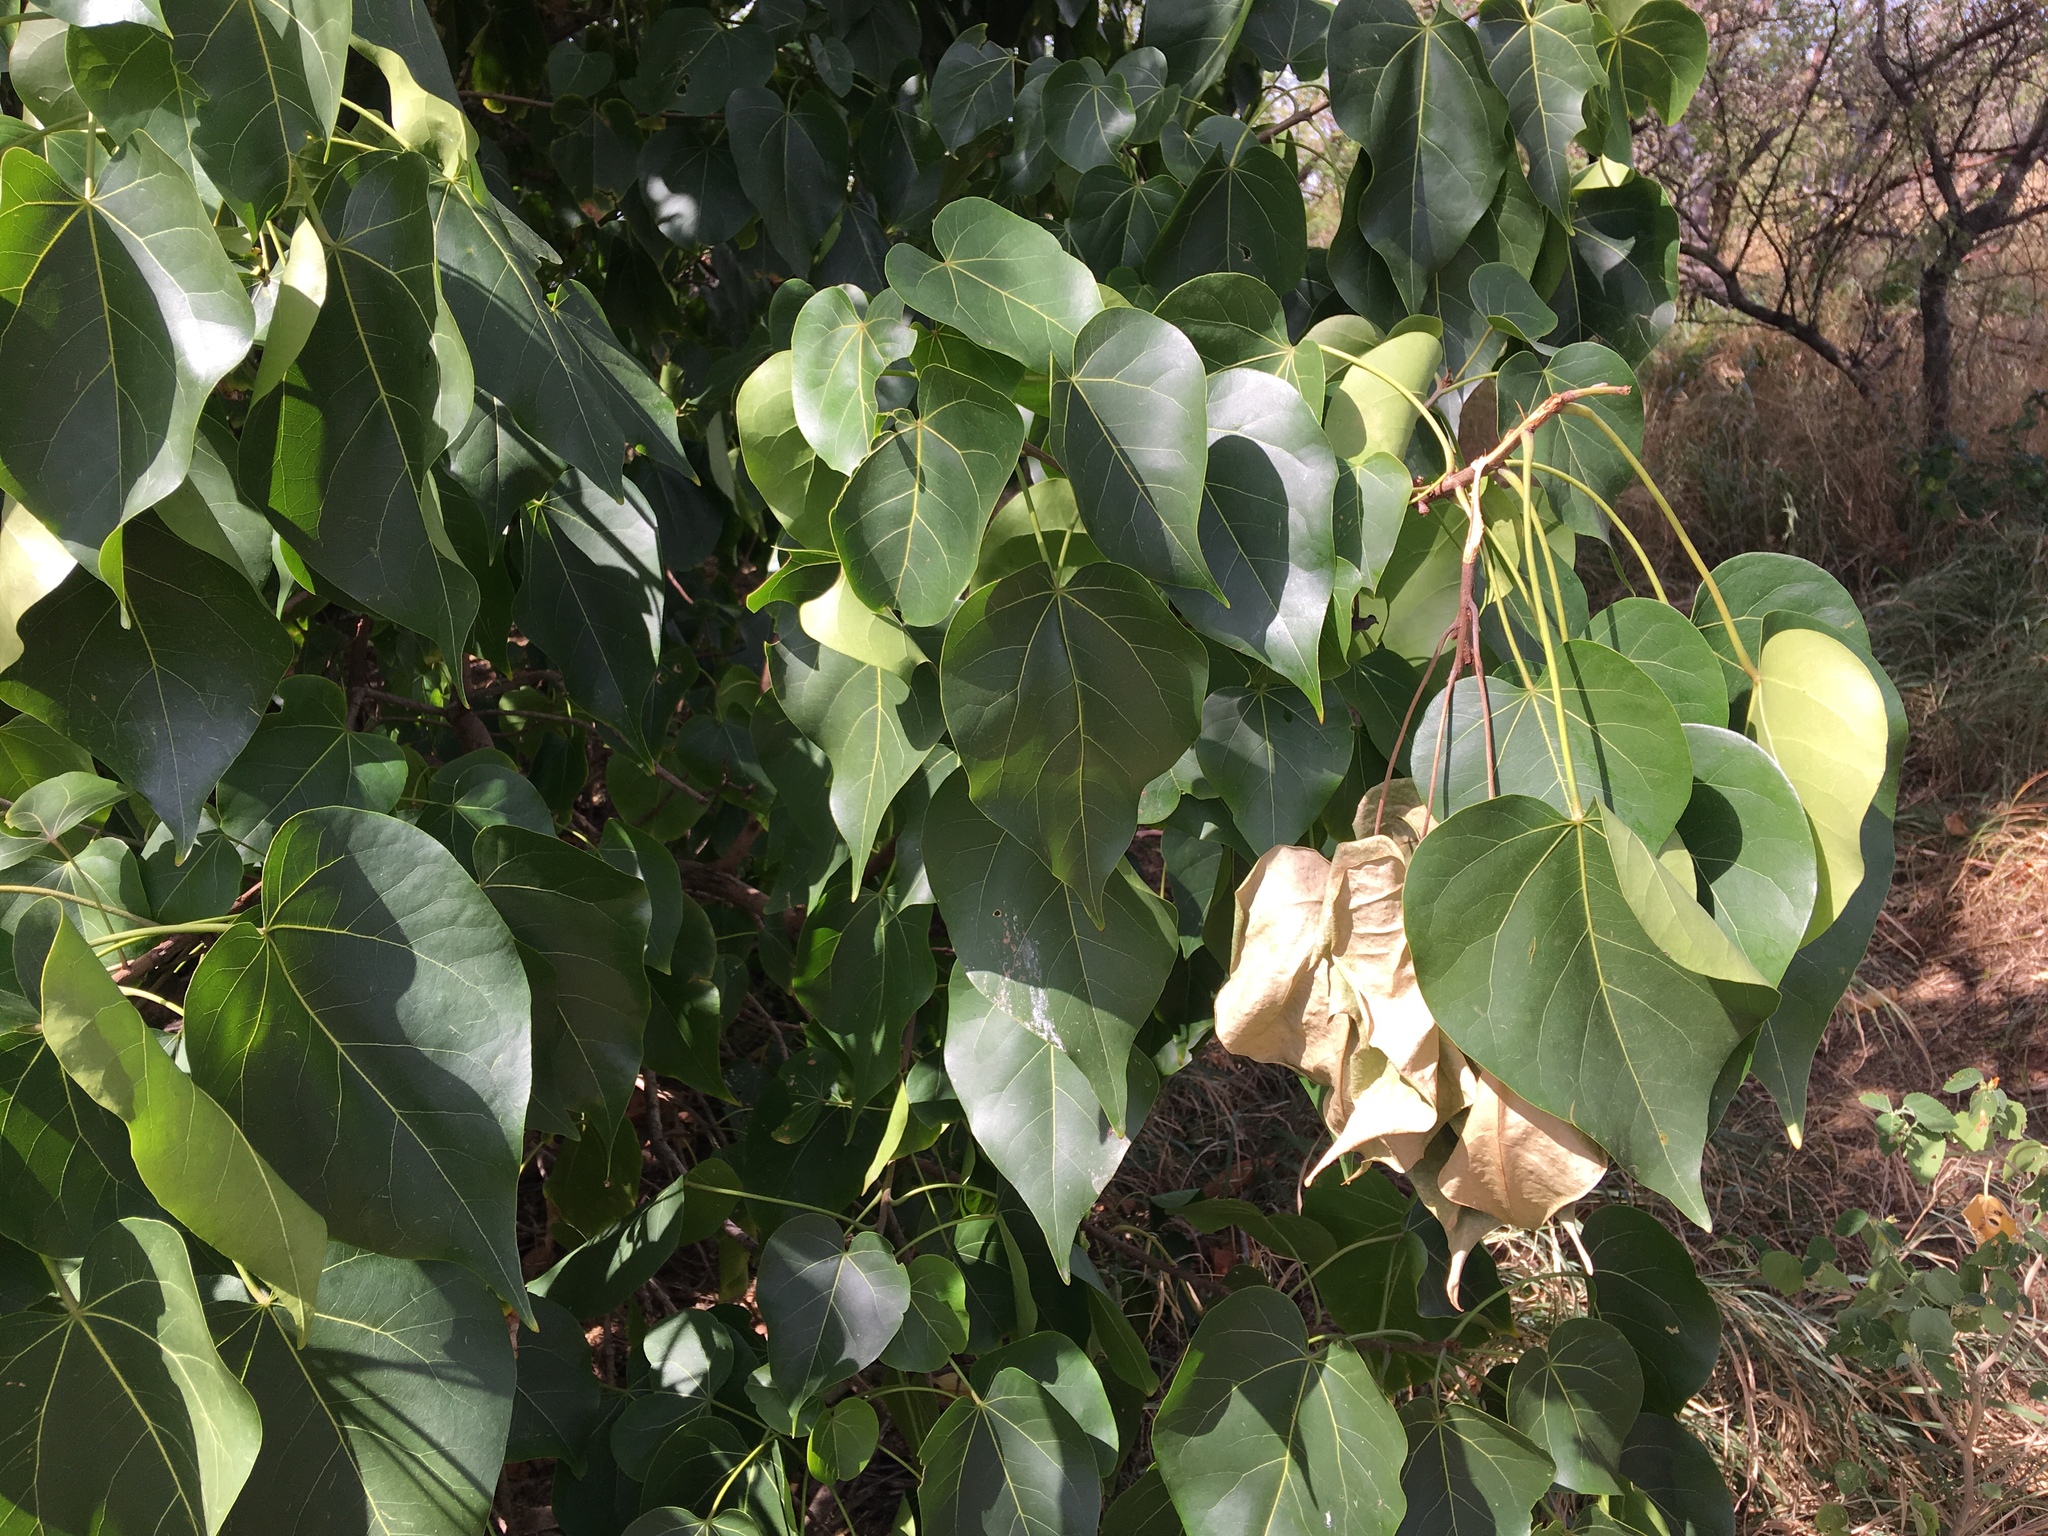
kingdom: Plantae
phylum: Tracheophyta
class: Magnoliopsida
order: Malvales
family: Malvaceae
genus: Thespesia
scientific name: Thespesia populnea
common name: Seaside mahoe
